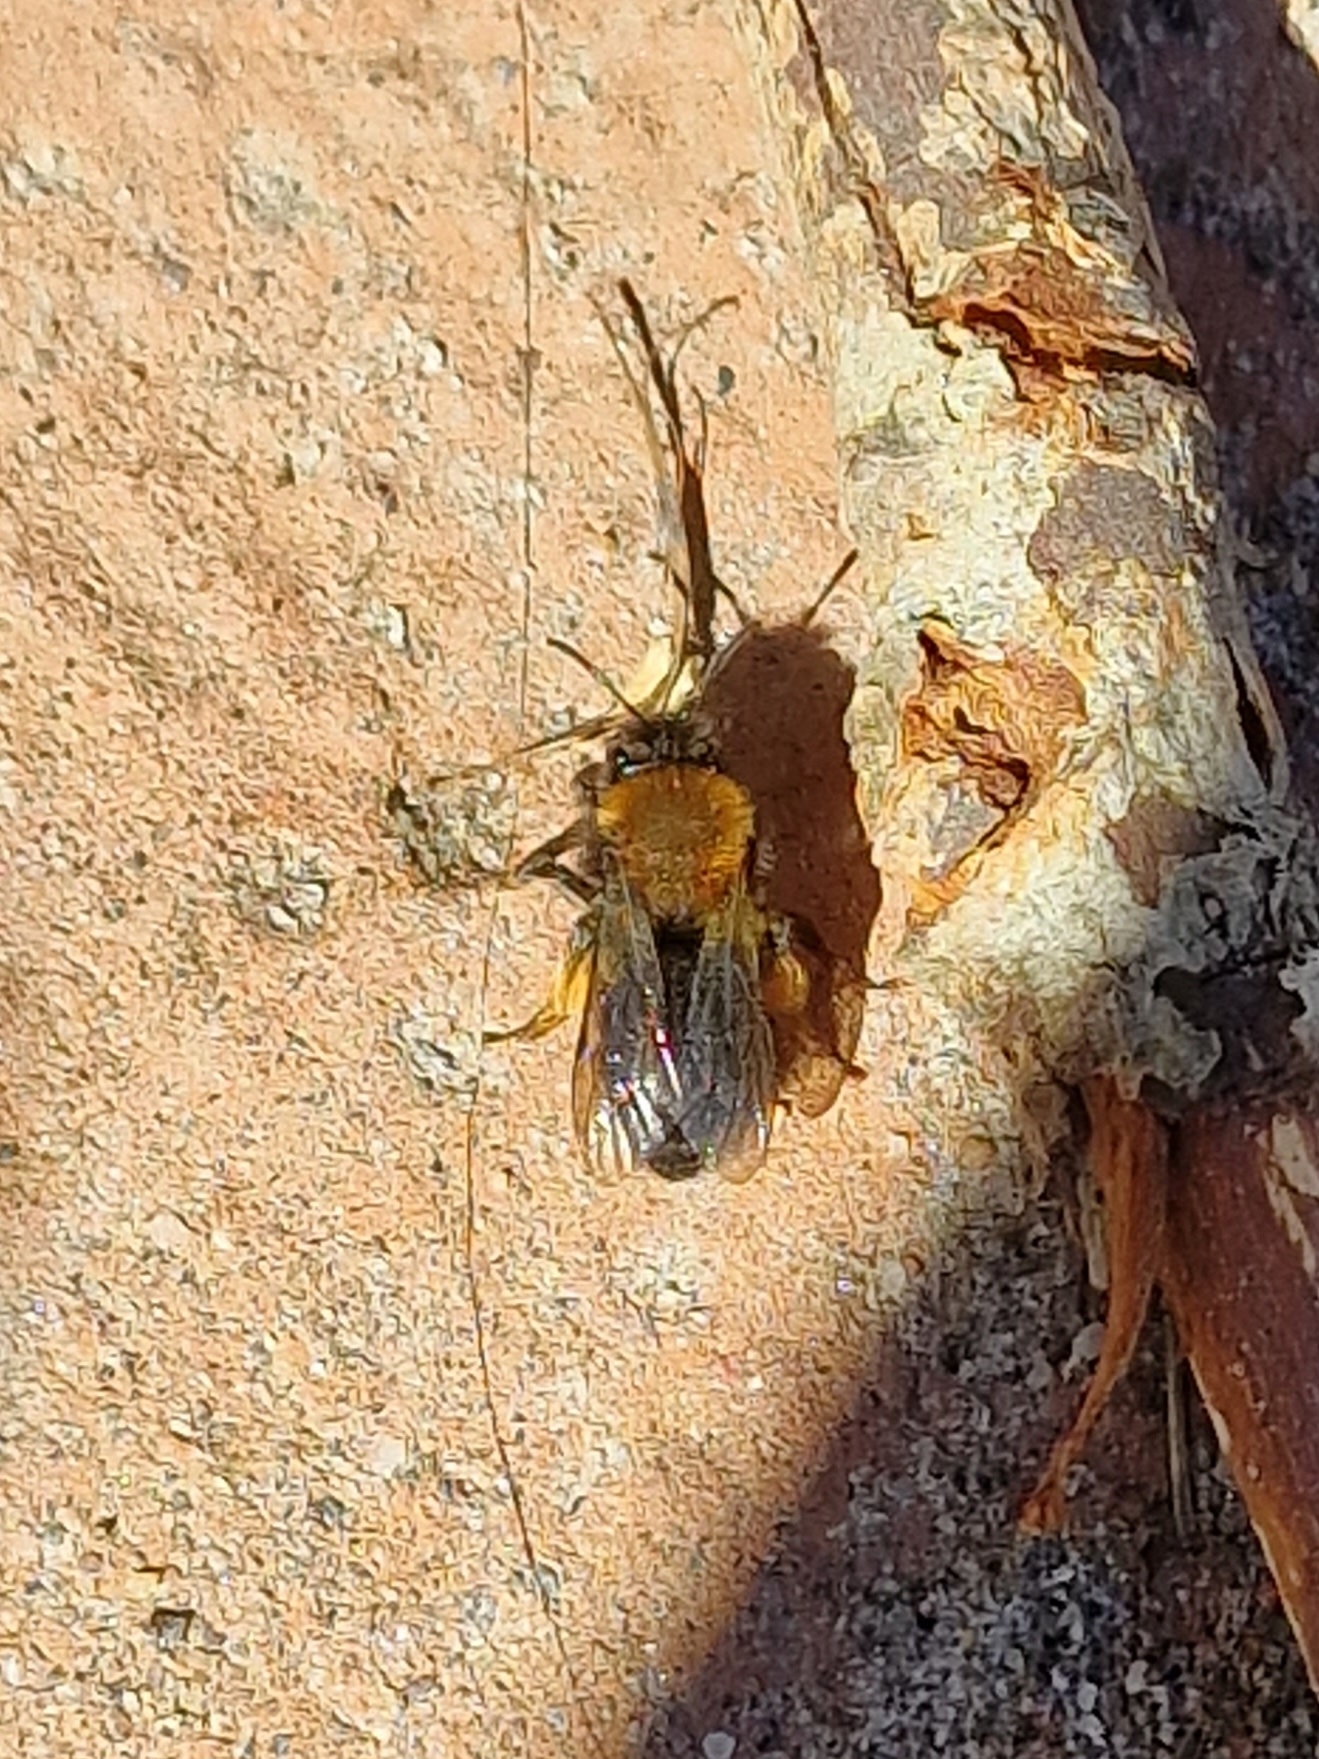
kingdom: Animalia
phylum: Arthropoda
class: Insecta
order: Hymenoptera
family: Andrenidae
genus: Andrena
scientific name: Andrena clarkella
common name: Clarke's mining bee
